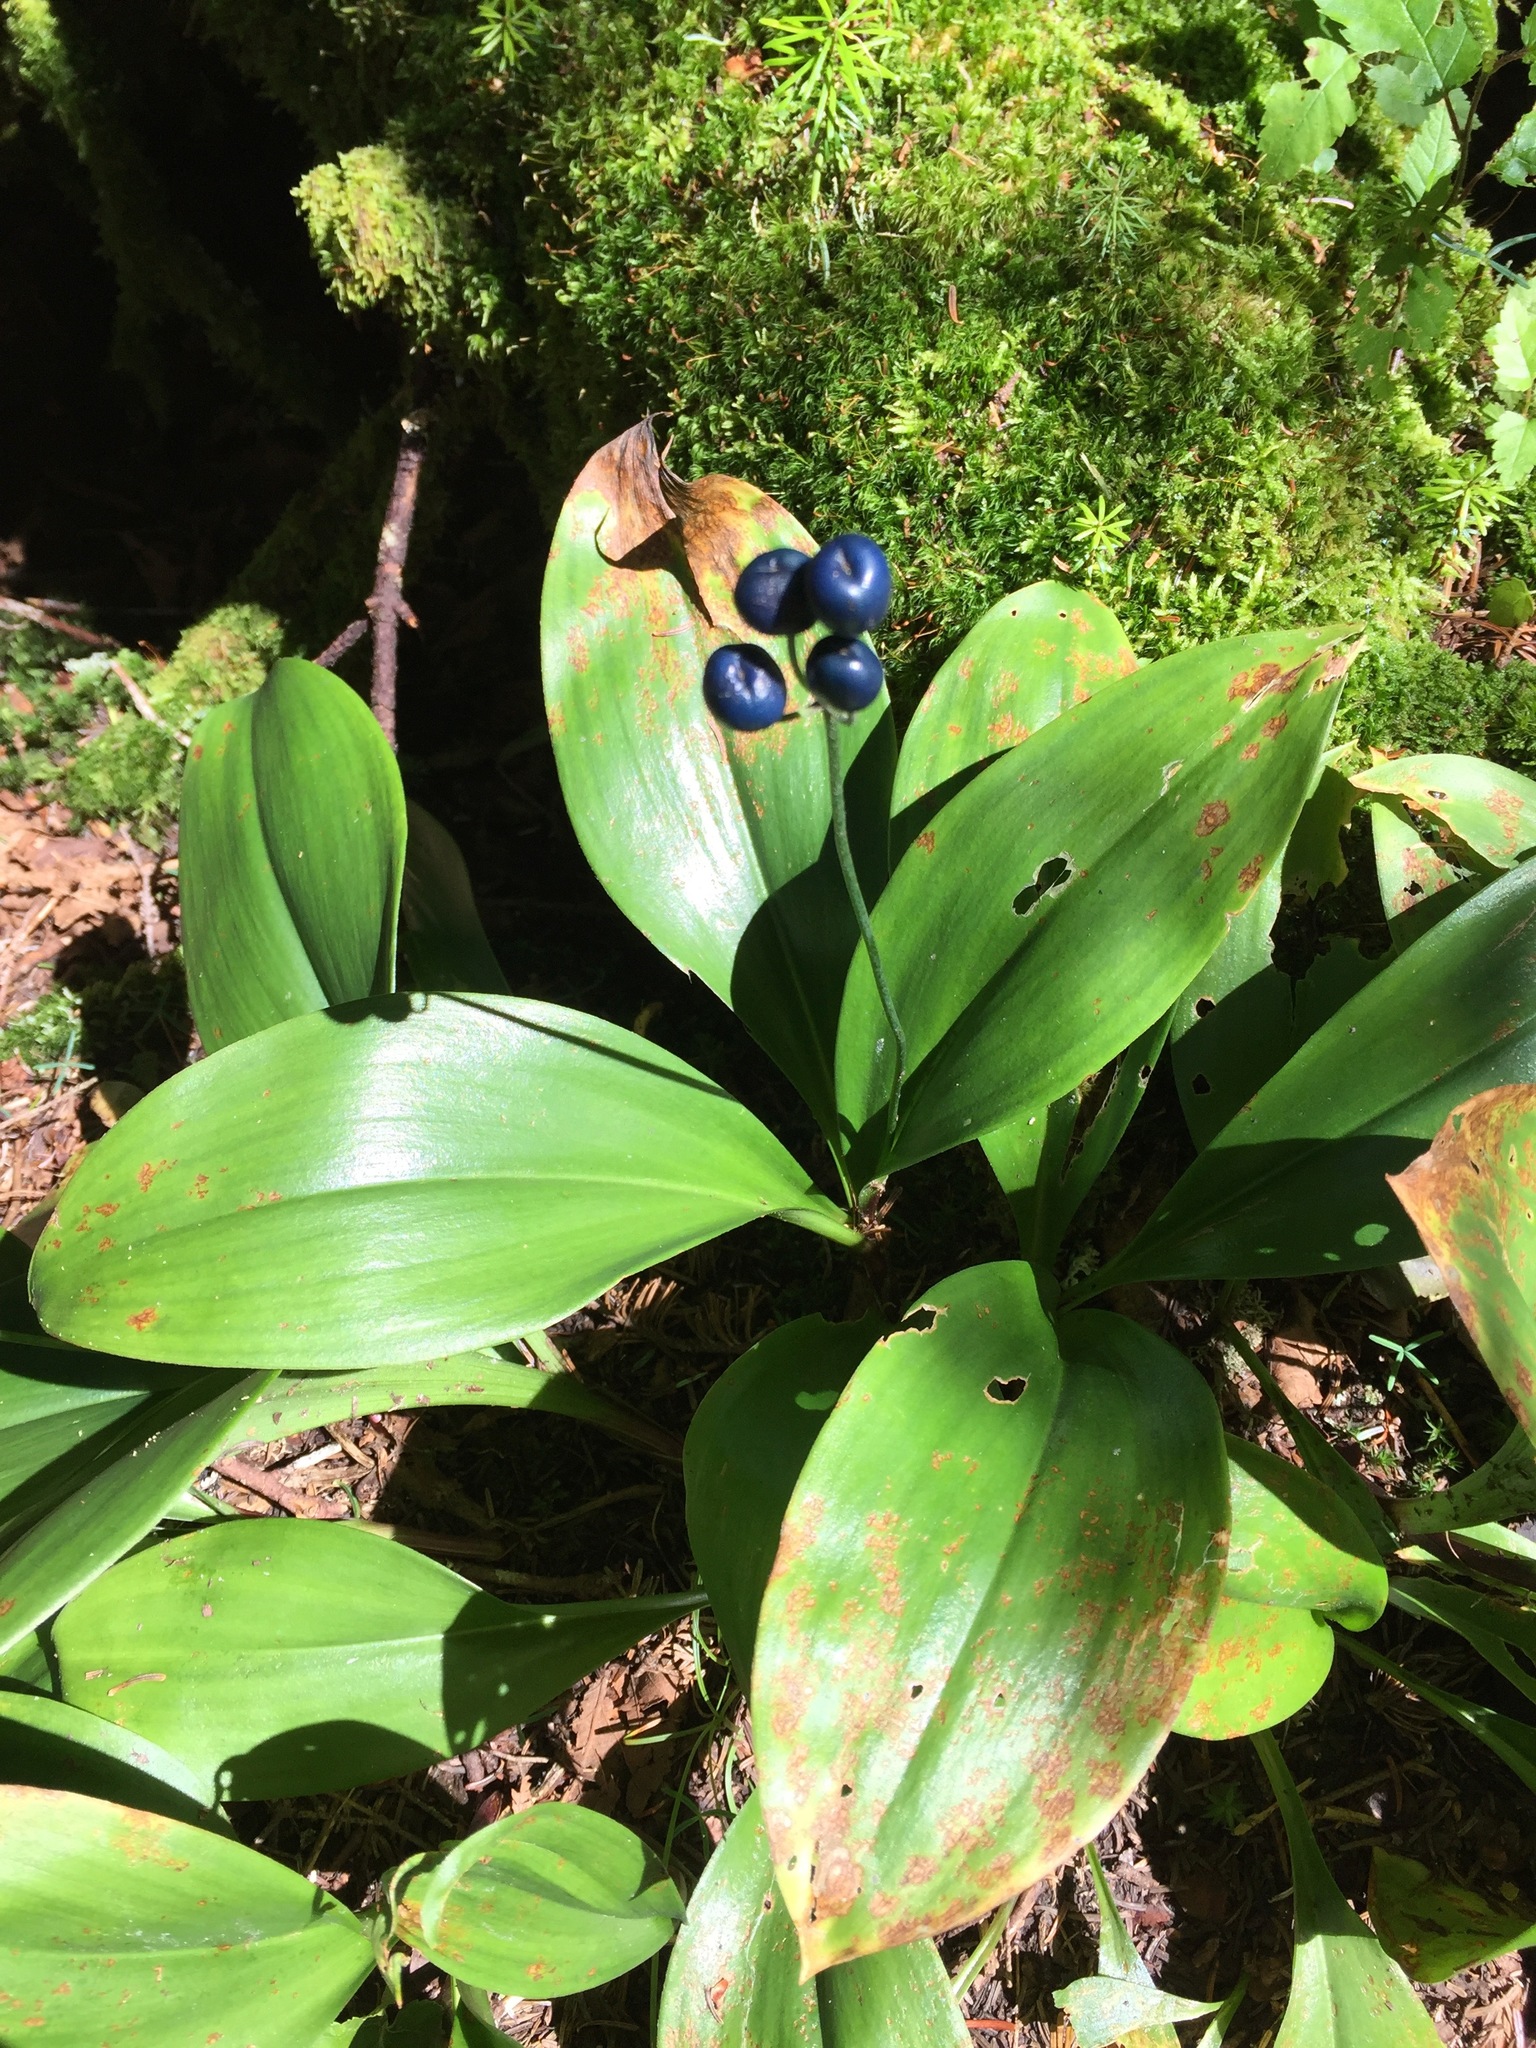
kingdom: Plantae
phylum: Tracheophyta
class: Liliopsida
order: Liliales
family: Liliaceae
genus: Clintonia
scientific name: Clintonia borealis
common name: Yellow clintonia
